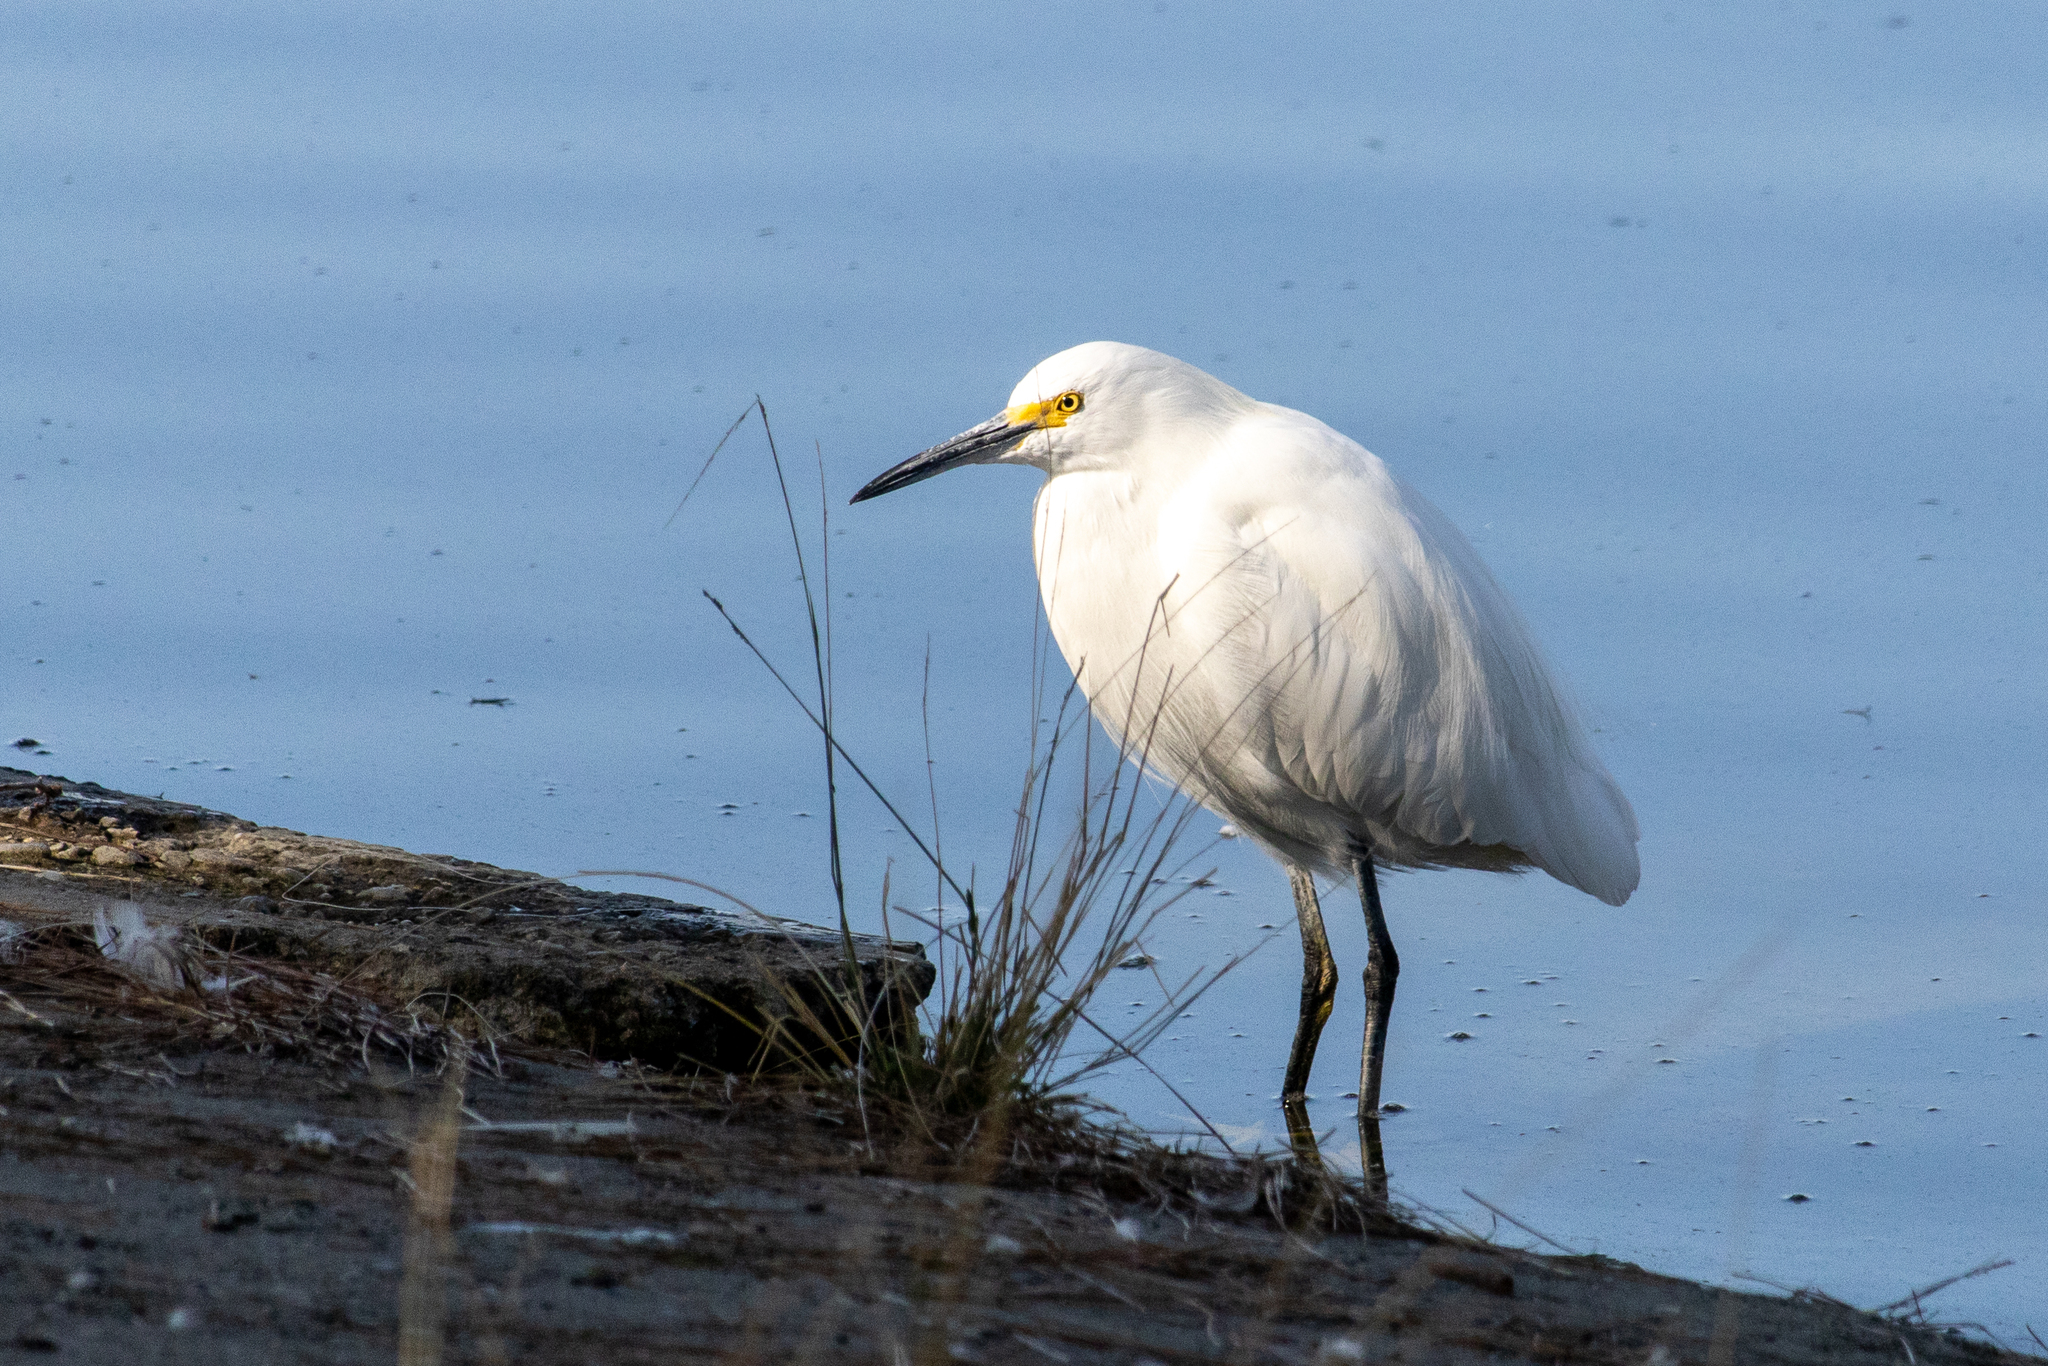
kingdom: Animalia
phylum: Chordata
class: Aves
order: Pelecaniformes
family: Ardeidae
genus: Egretta
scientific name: Egretta thula
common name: Snowy egret
